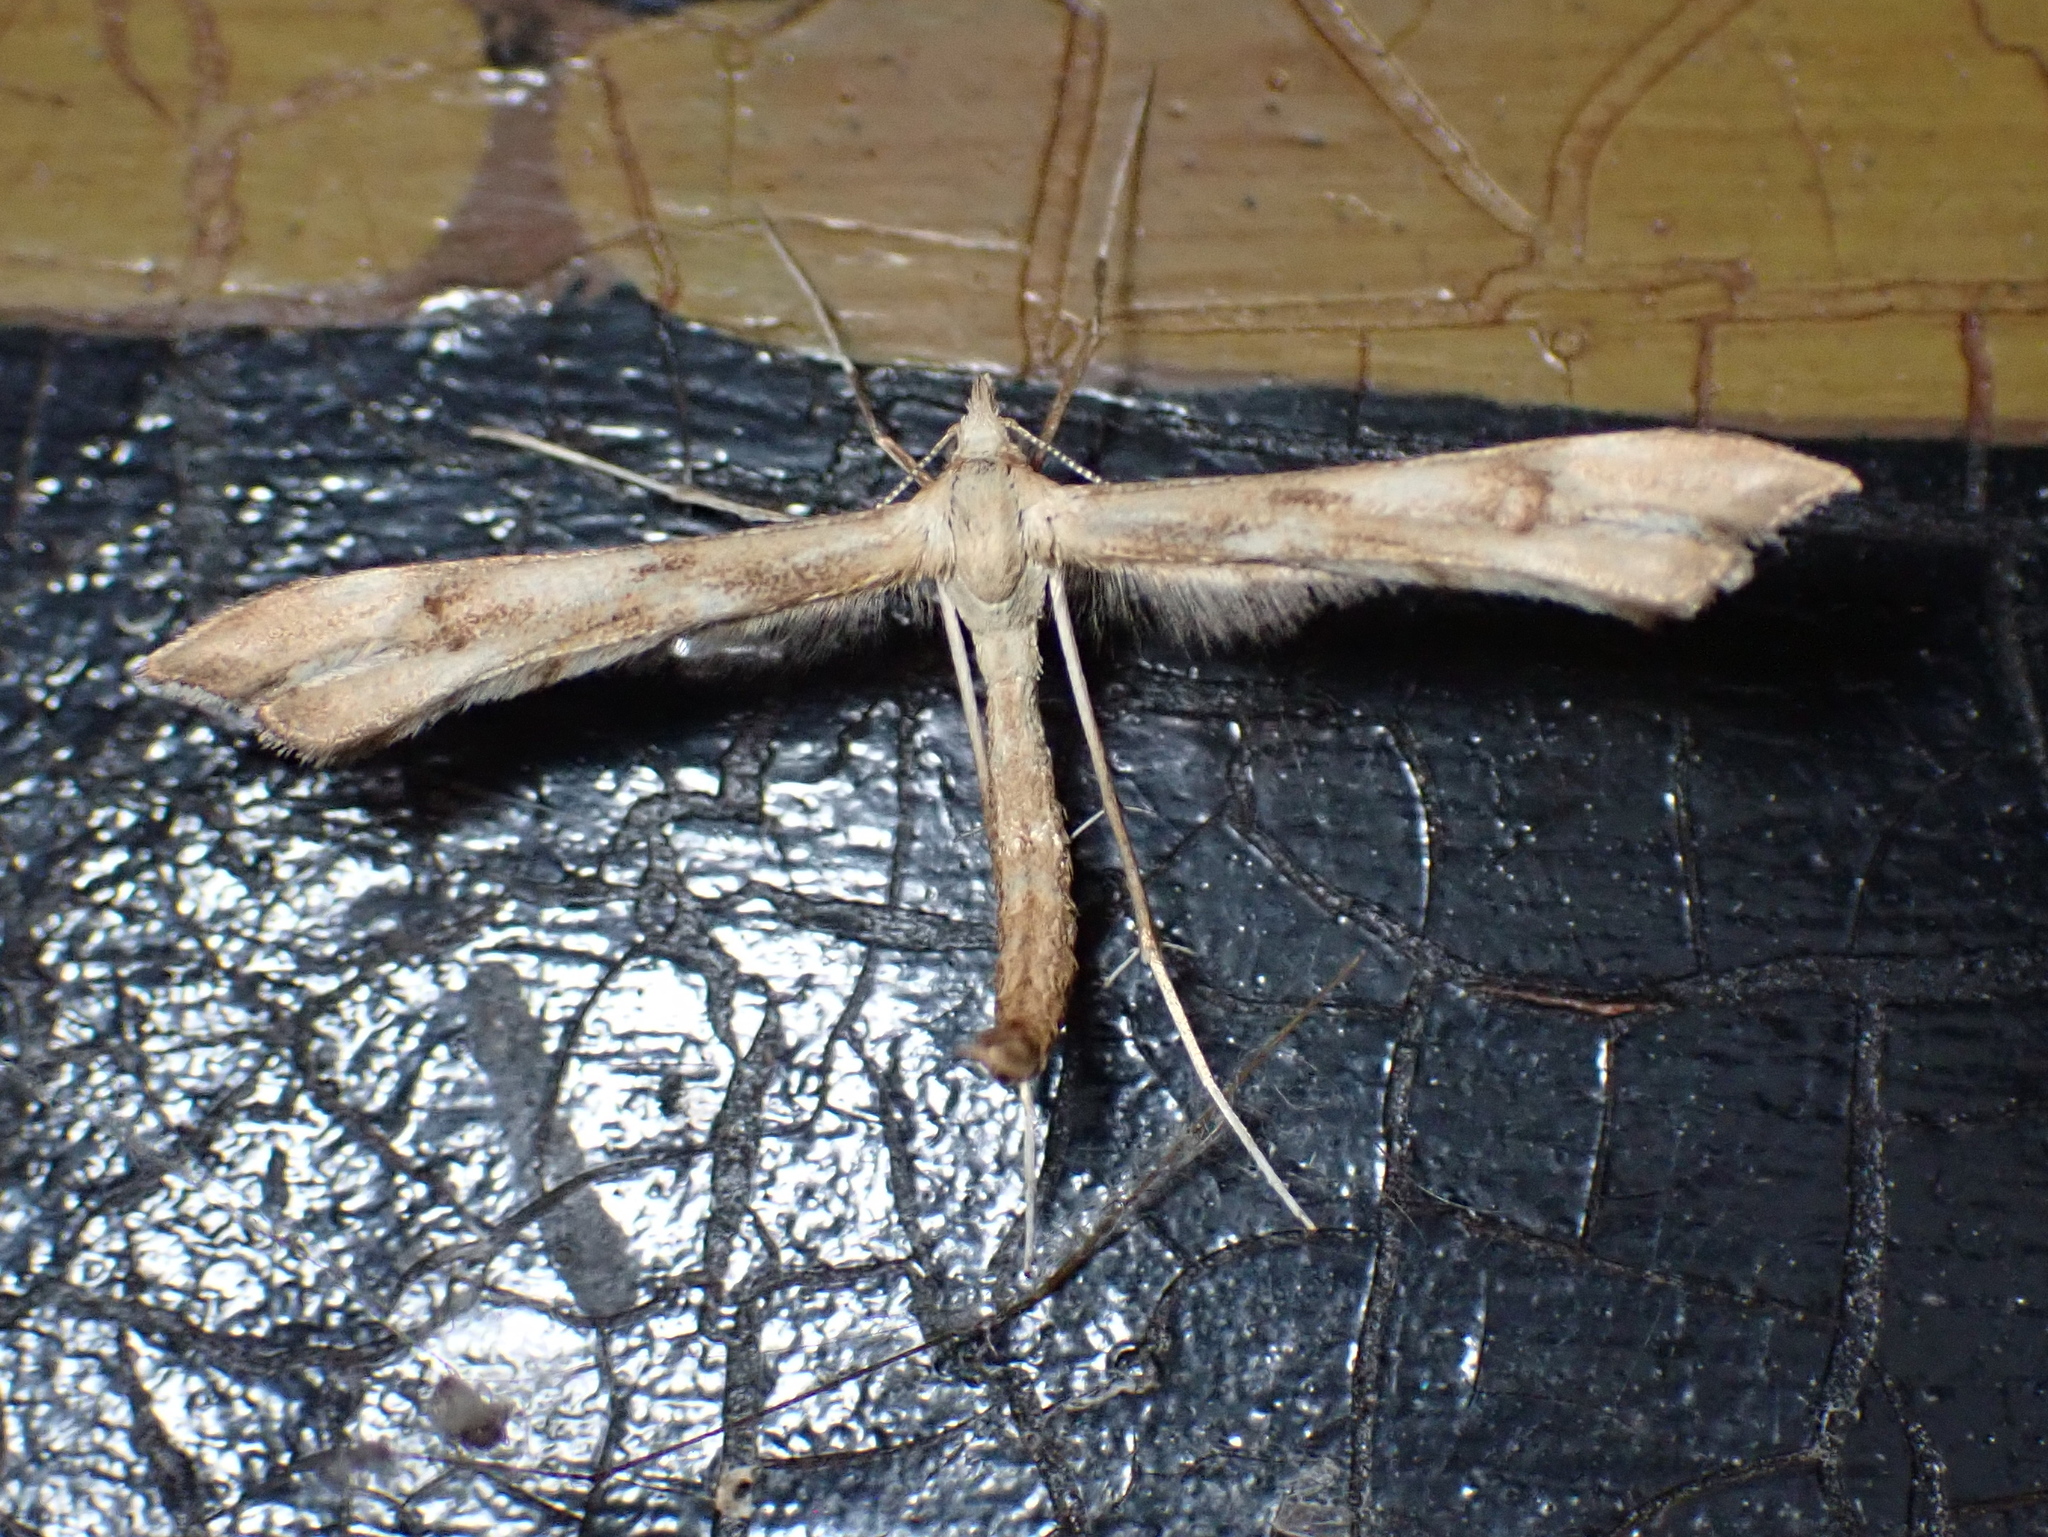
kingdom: Animalia
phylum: Arthropoda
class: Insecta
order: Lepidoptera
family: Pterophoridae
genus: Gillmeria
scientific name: Gillmeria pallidactyla
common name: Yarrow plume
